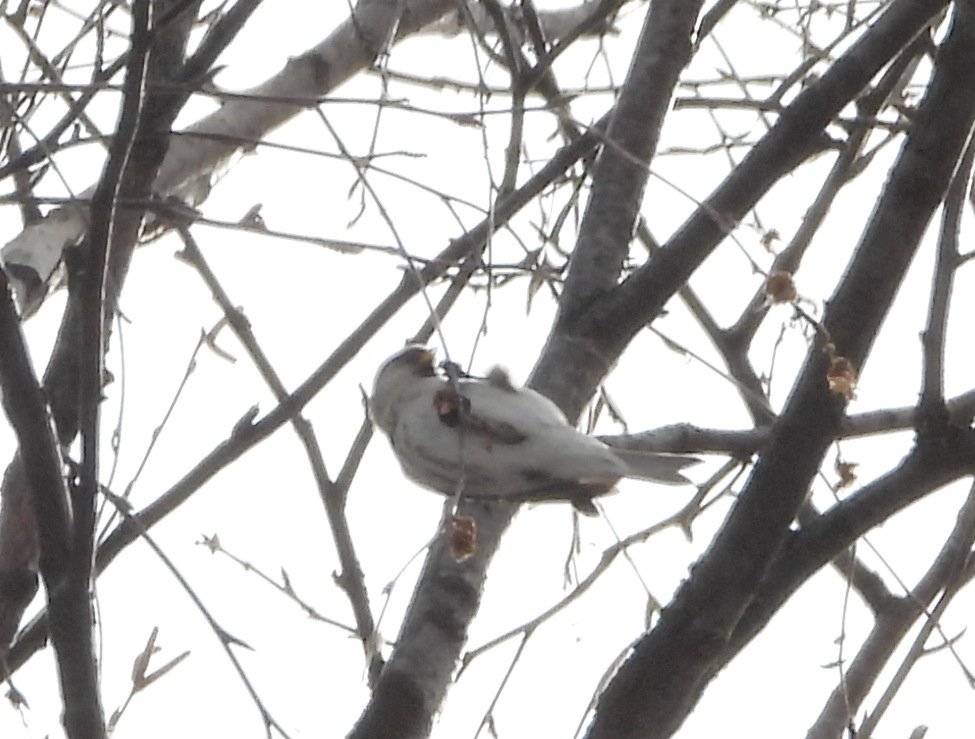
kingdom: Animalia
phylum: Chordata
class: Aves
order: Passeriformes
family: Fringillidae
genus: Acanthis
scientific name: Acanthis flammea
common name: Common redpoll
